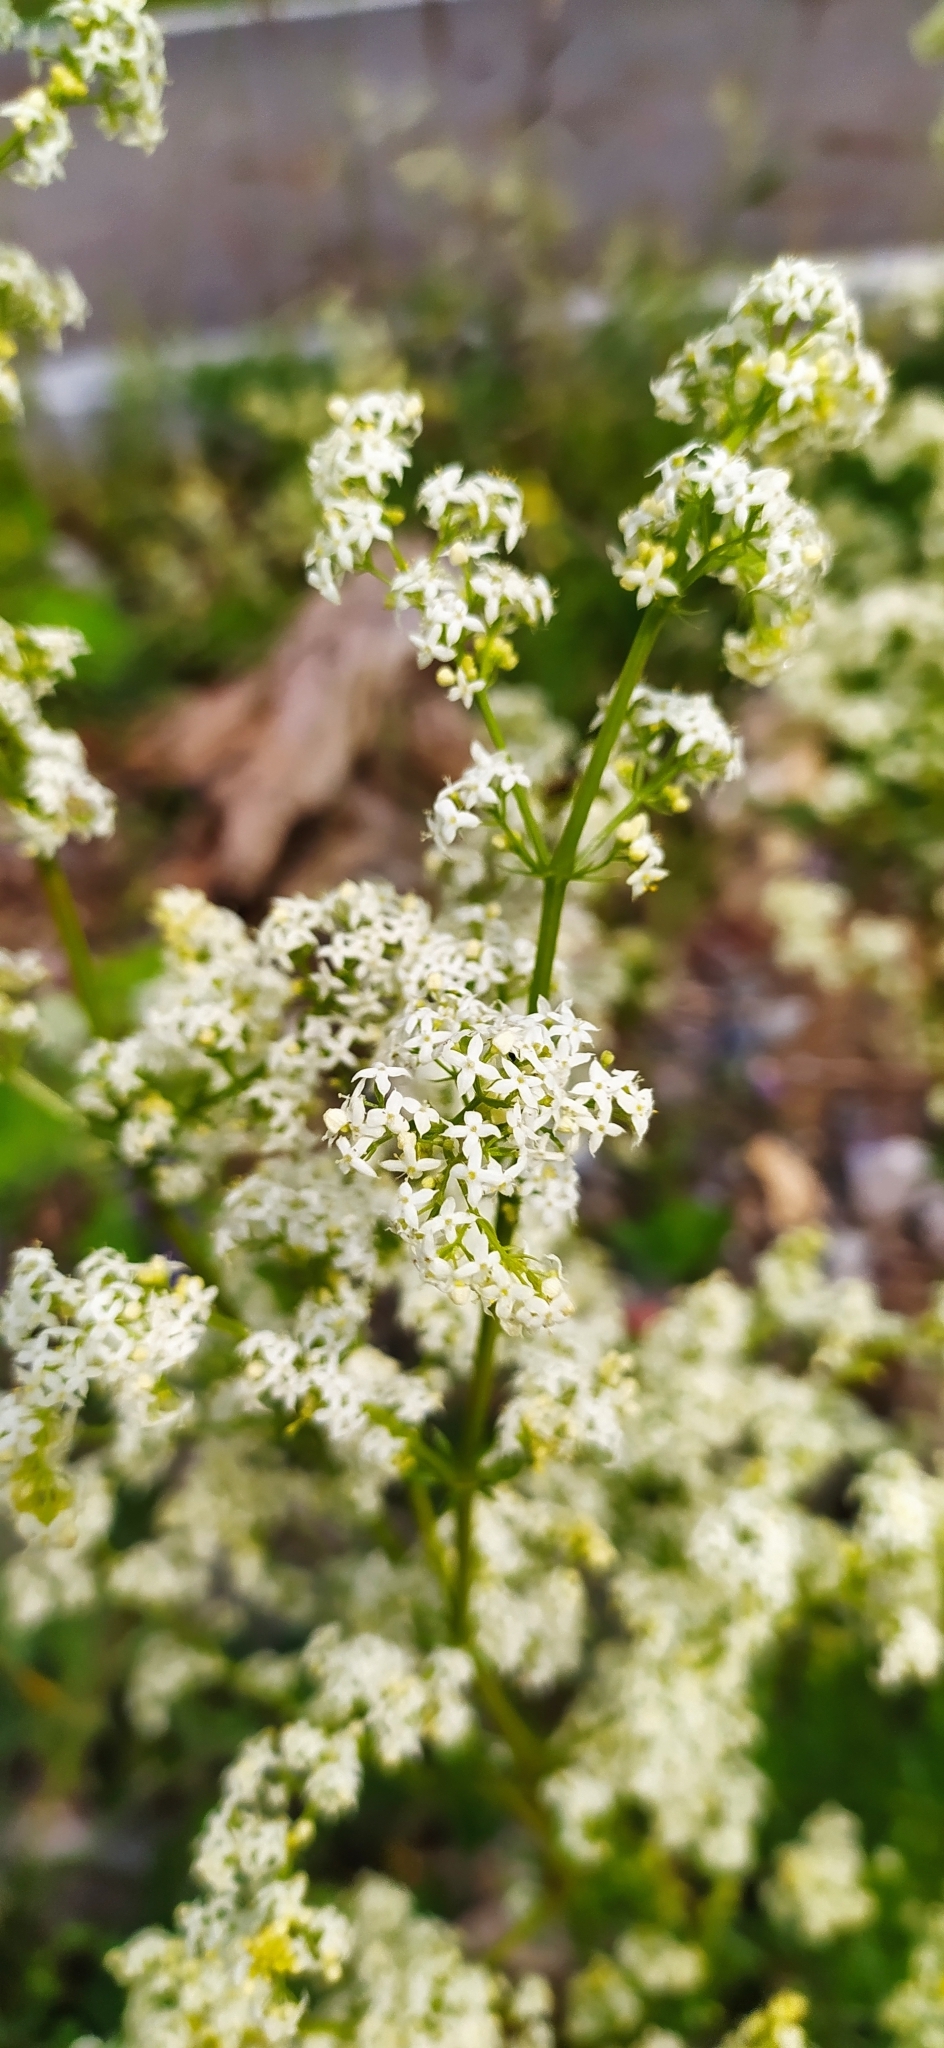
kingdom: Plantae
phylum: Tracheophyta
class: Magnoliopsida
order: Gentianales
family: Rubiaceae
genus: Galium
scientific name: Galium mollugo
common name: Hedge bedstraw
